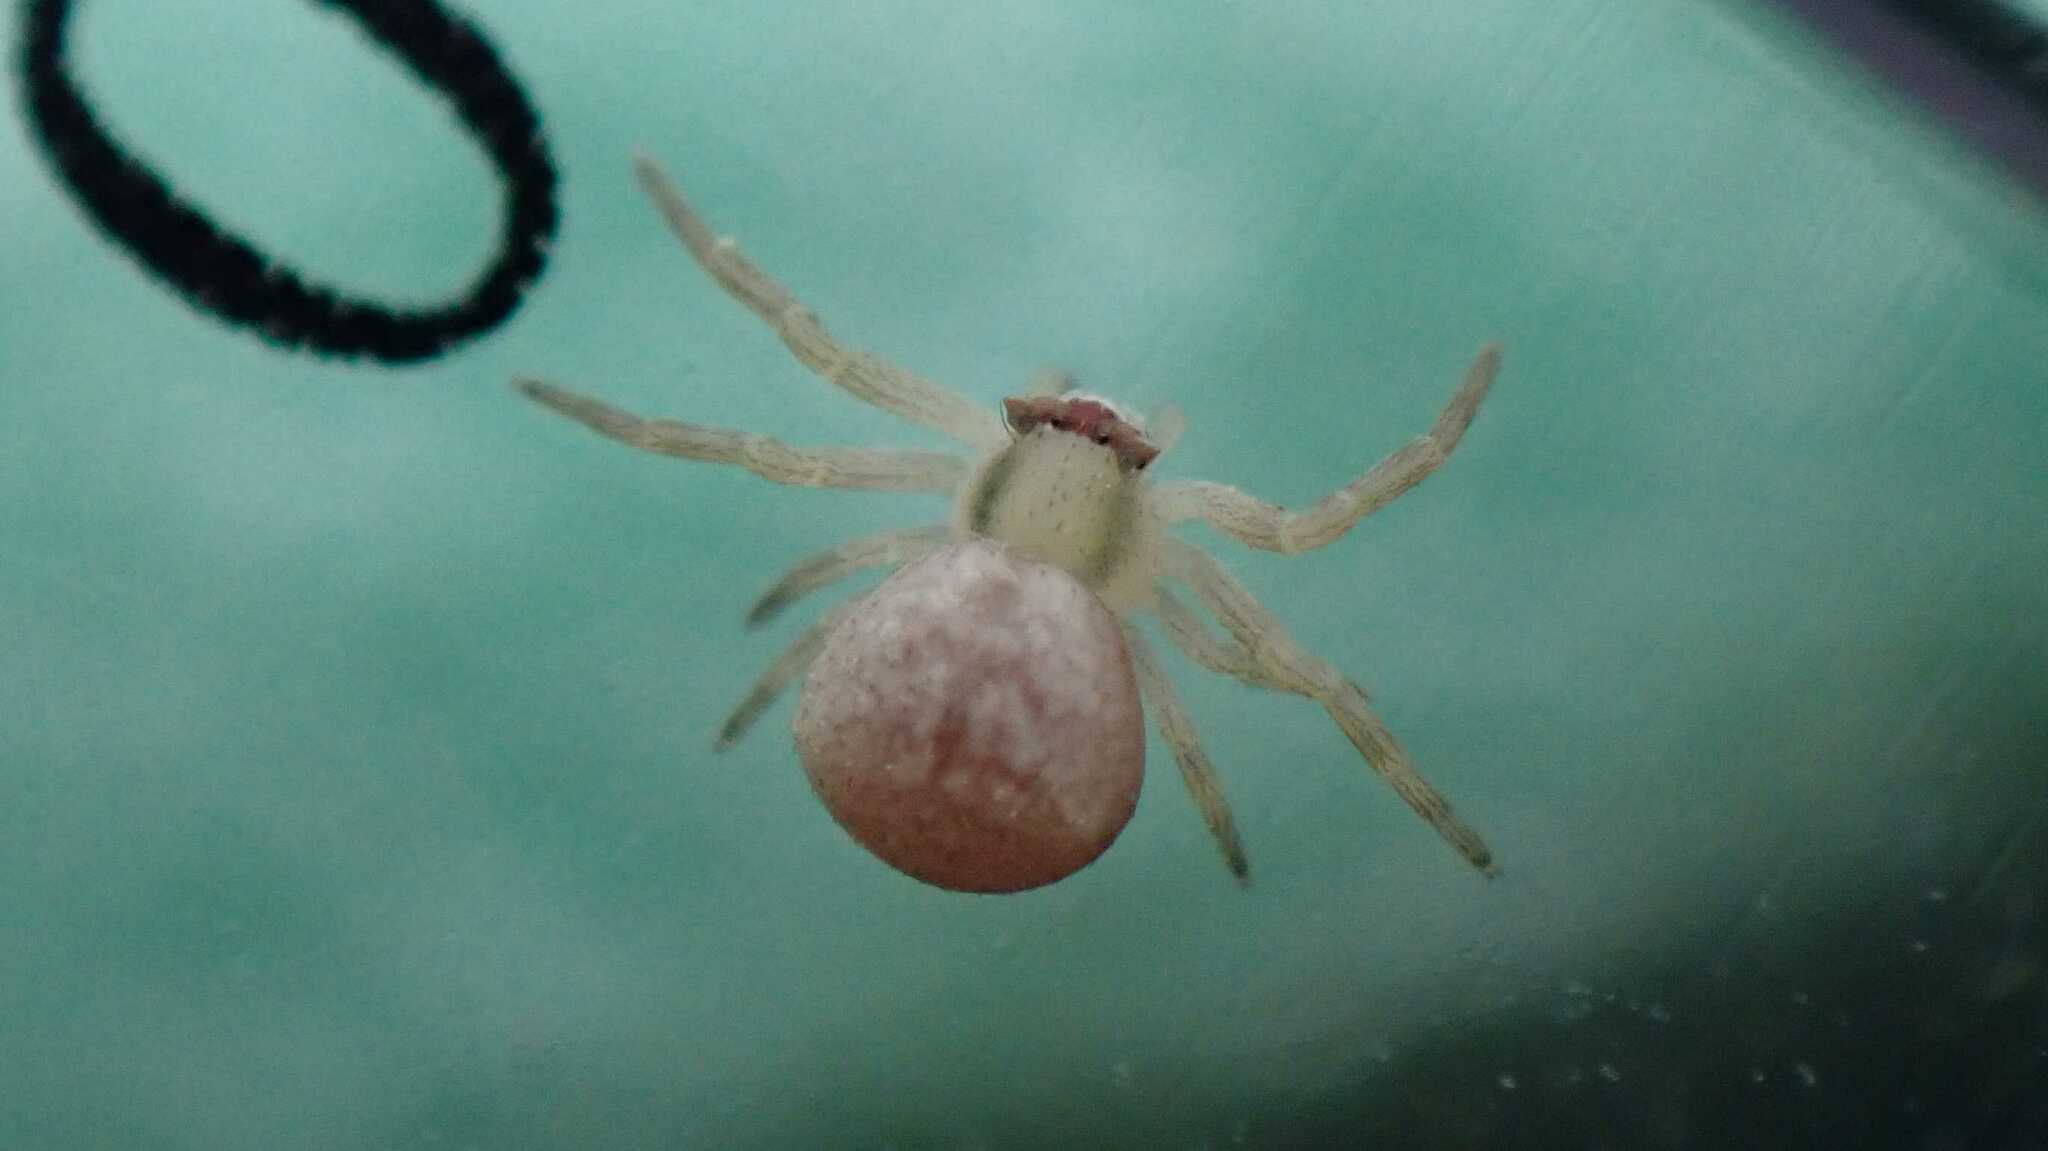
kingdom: Animalia
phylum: Arthropoda
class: Arachnida
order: Araneae
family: Thomisidae
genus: Misumena
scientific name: Misumena vatia
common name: Goldenrod crab spider
